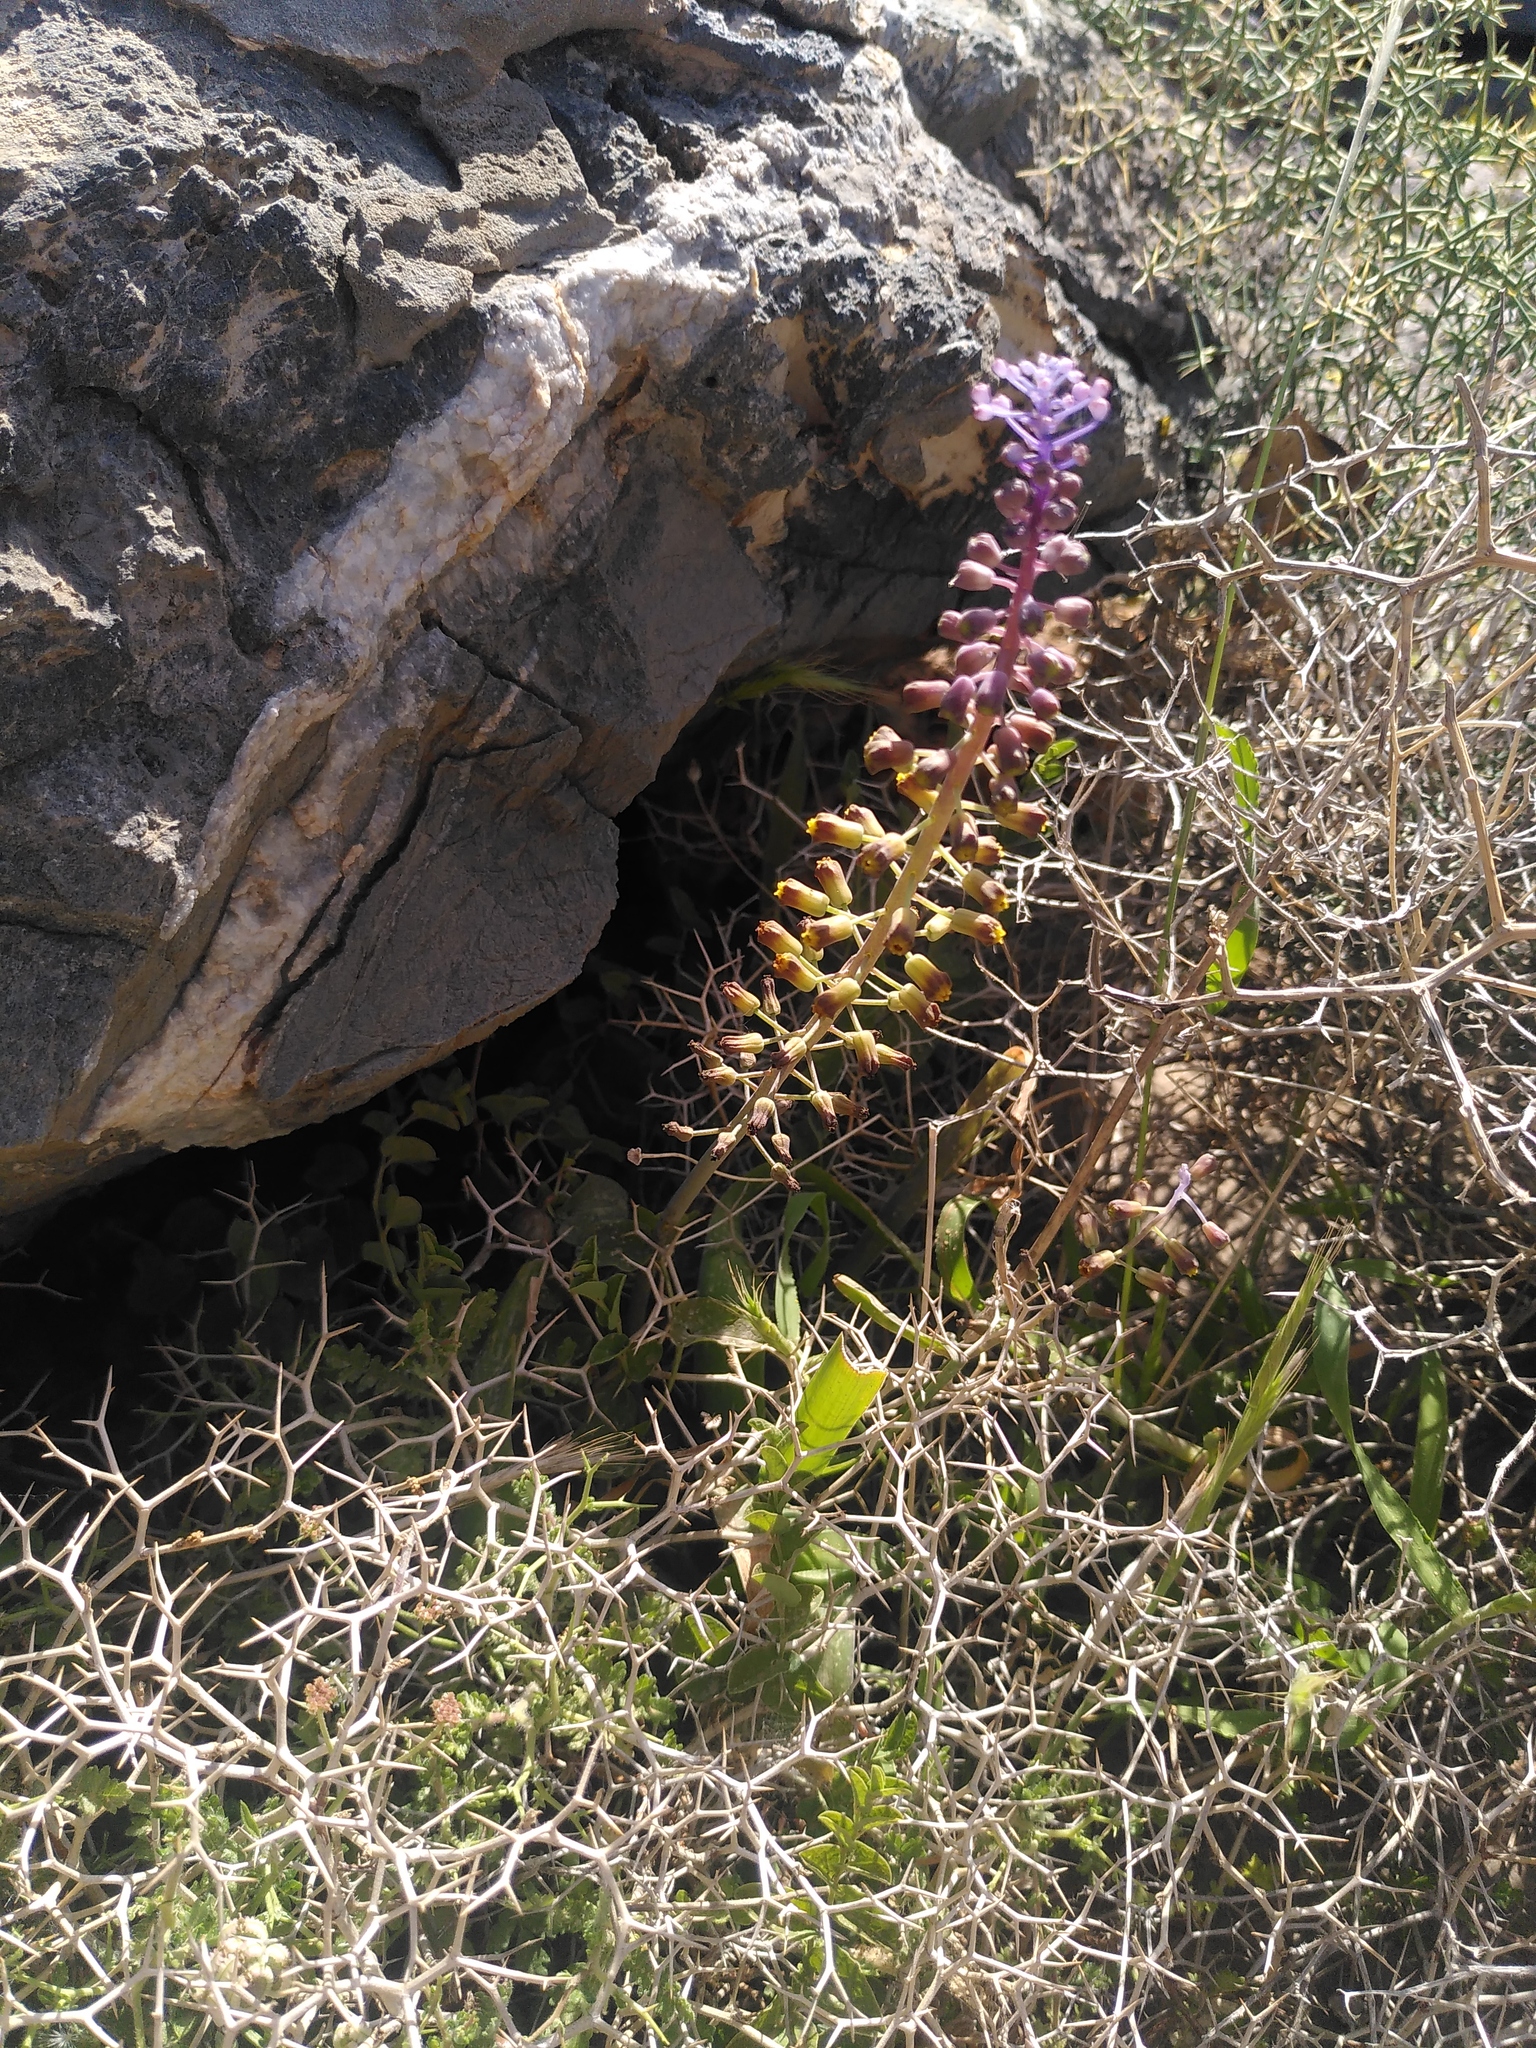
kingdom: Plantae
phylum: Tracheophyta
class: Liliopsida
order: Asparagales
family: Asparagaceae
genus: Muscari
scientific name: Muscari spreitzenhoferi
